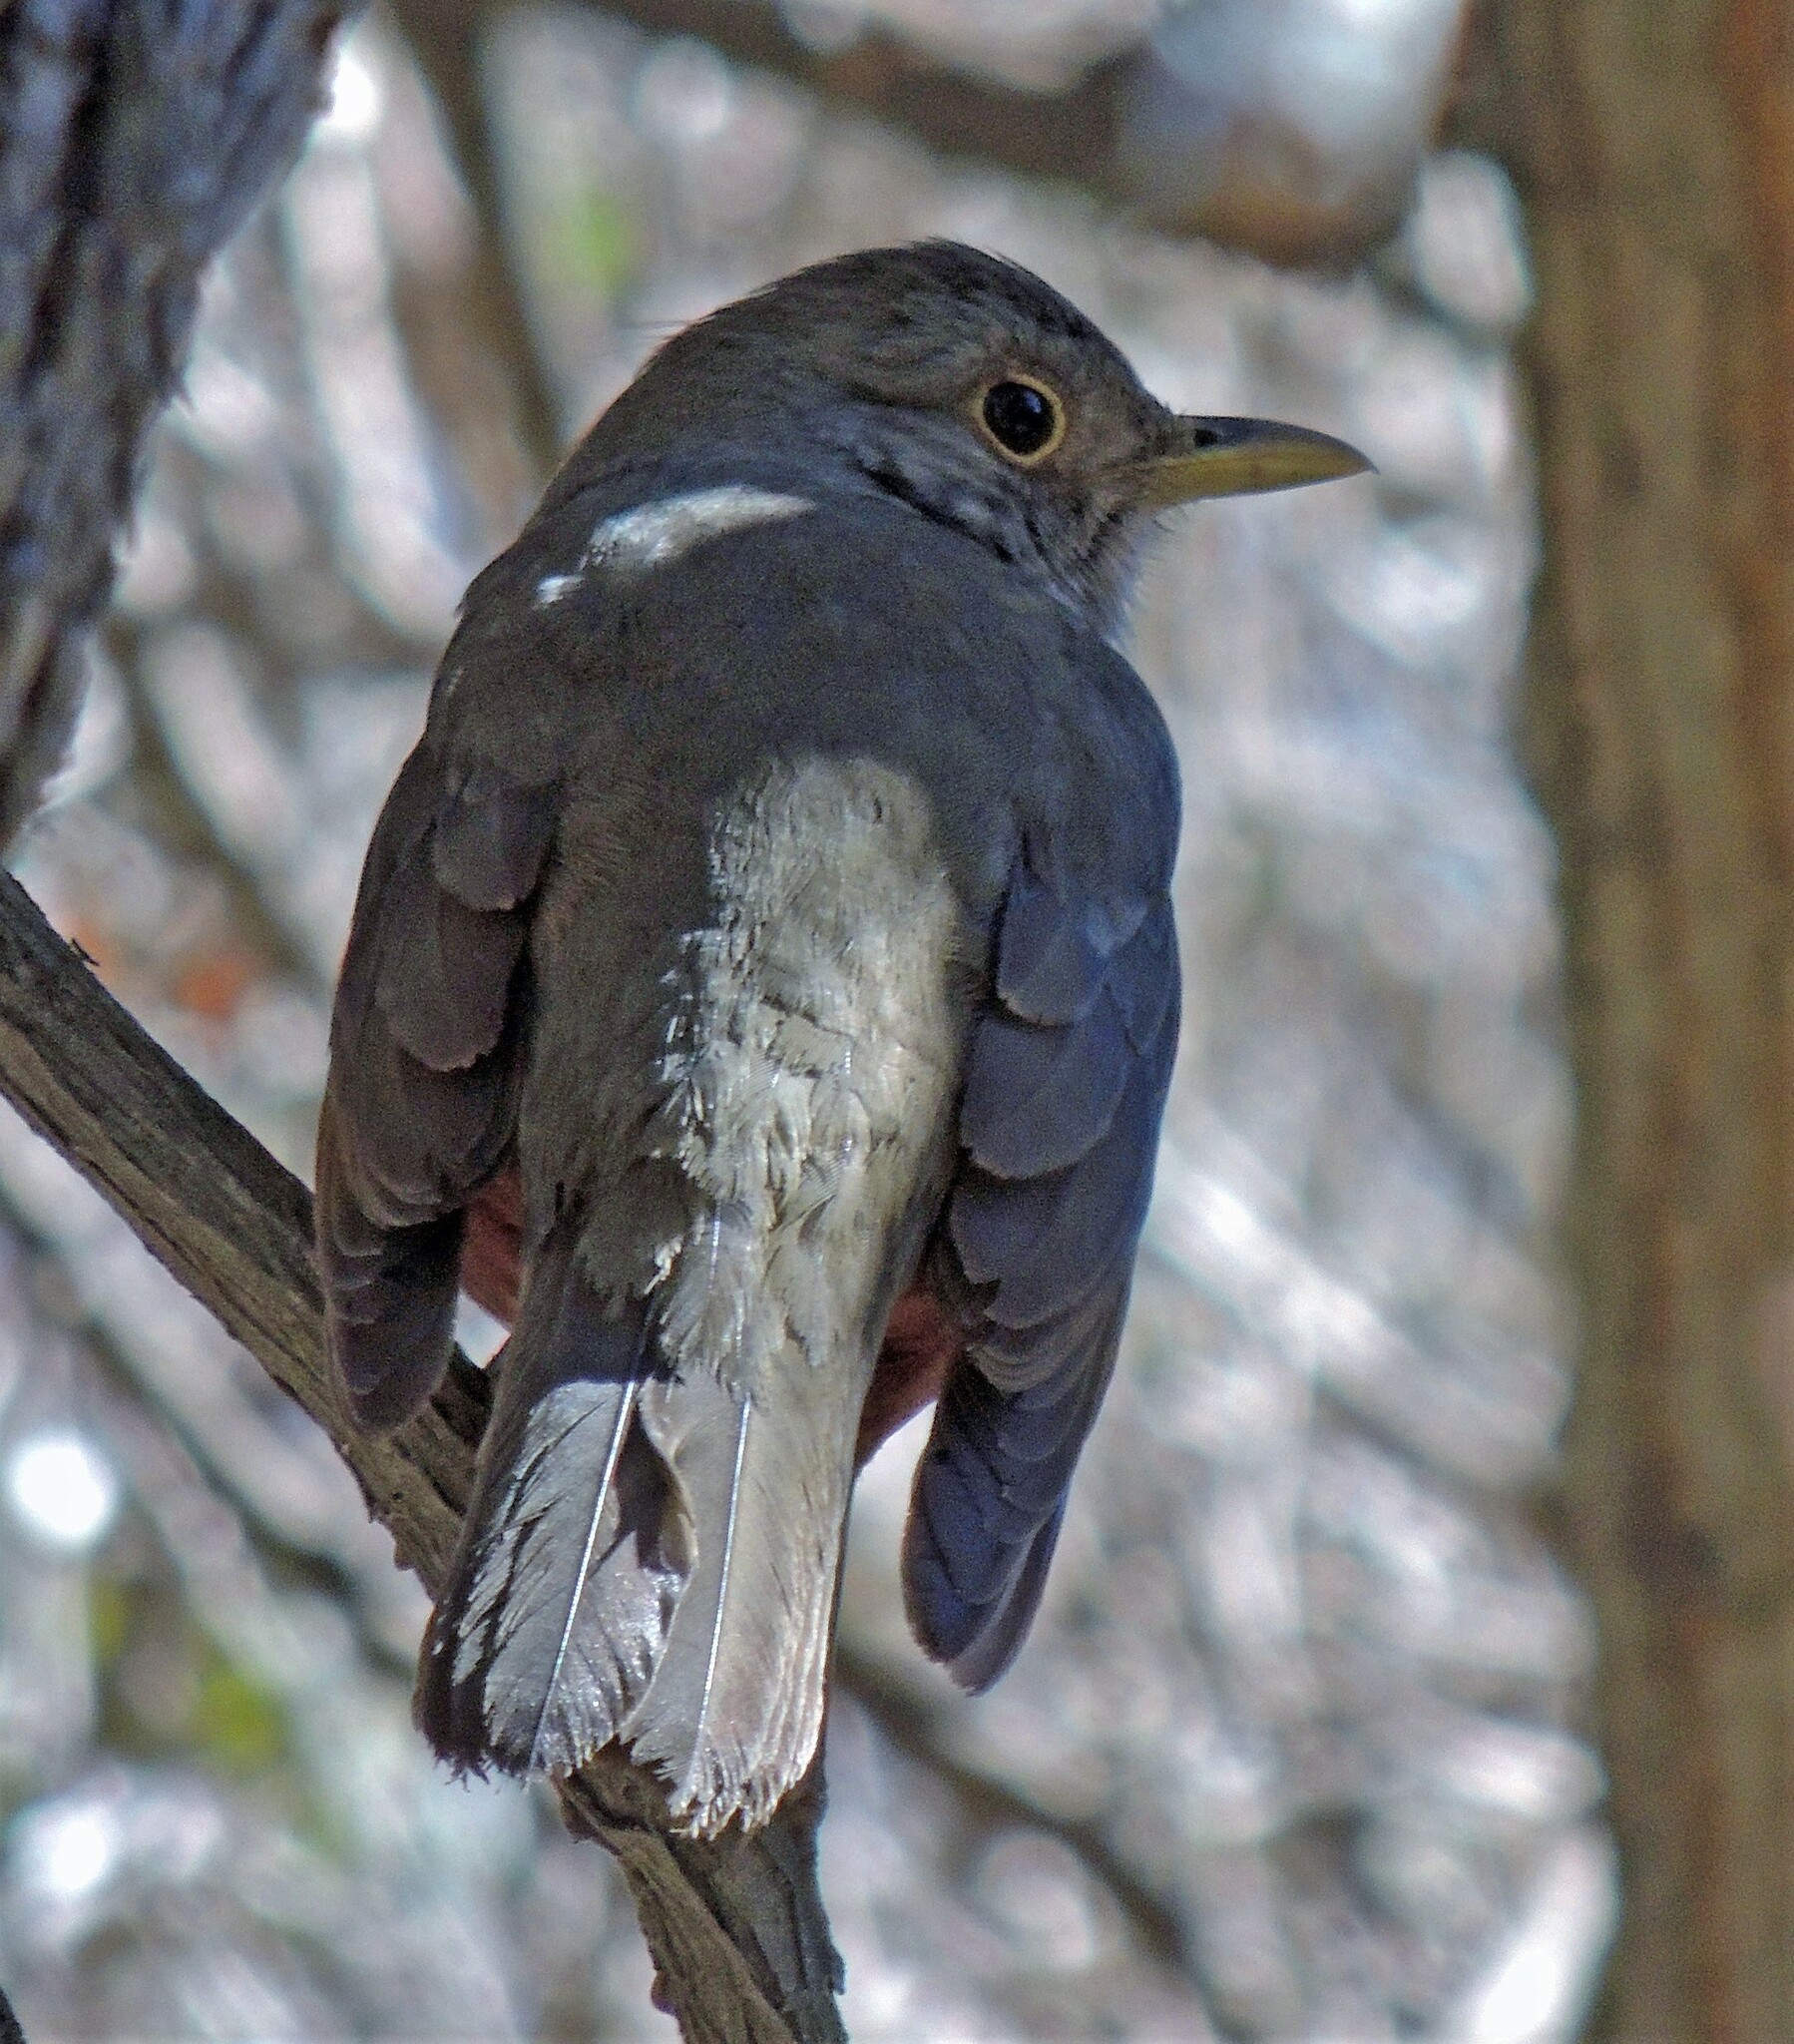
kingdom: Animalia
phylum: Chordata
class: Aves
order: Passeriformes
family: Turdidae
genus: Turdus
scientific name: Turdus rufiventris
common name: Rufous-bellied thrush
